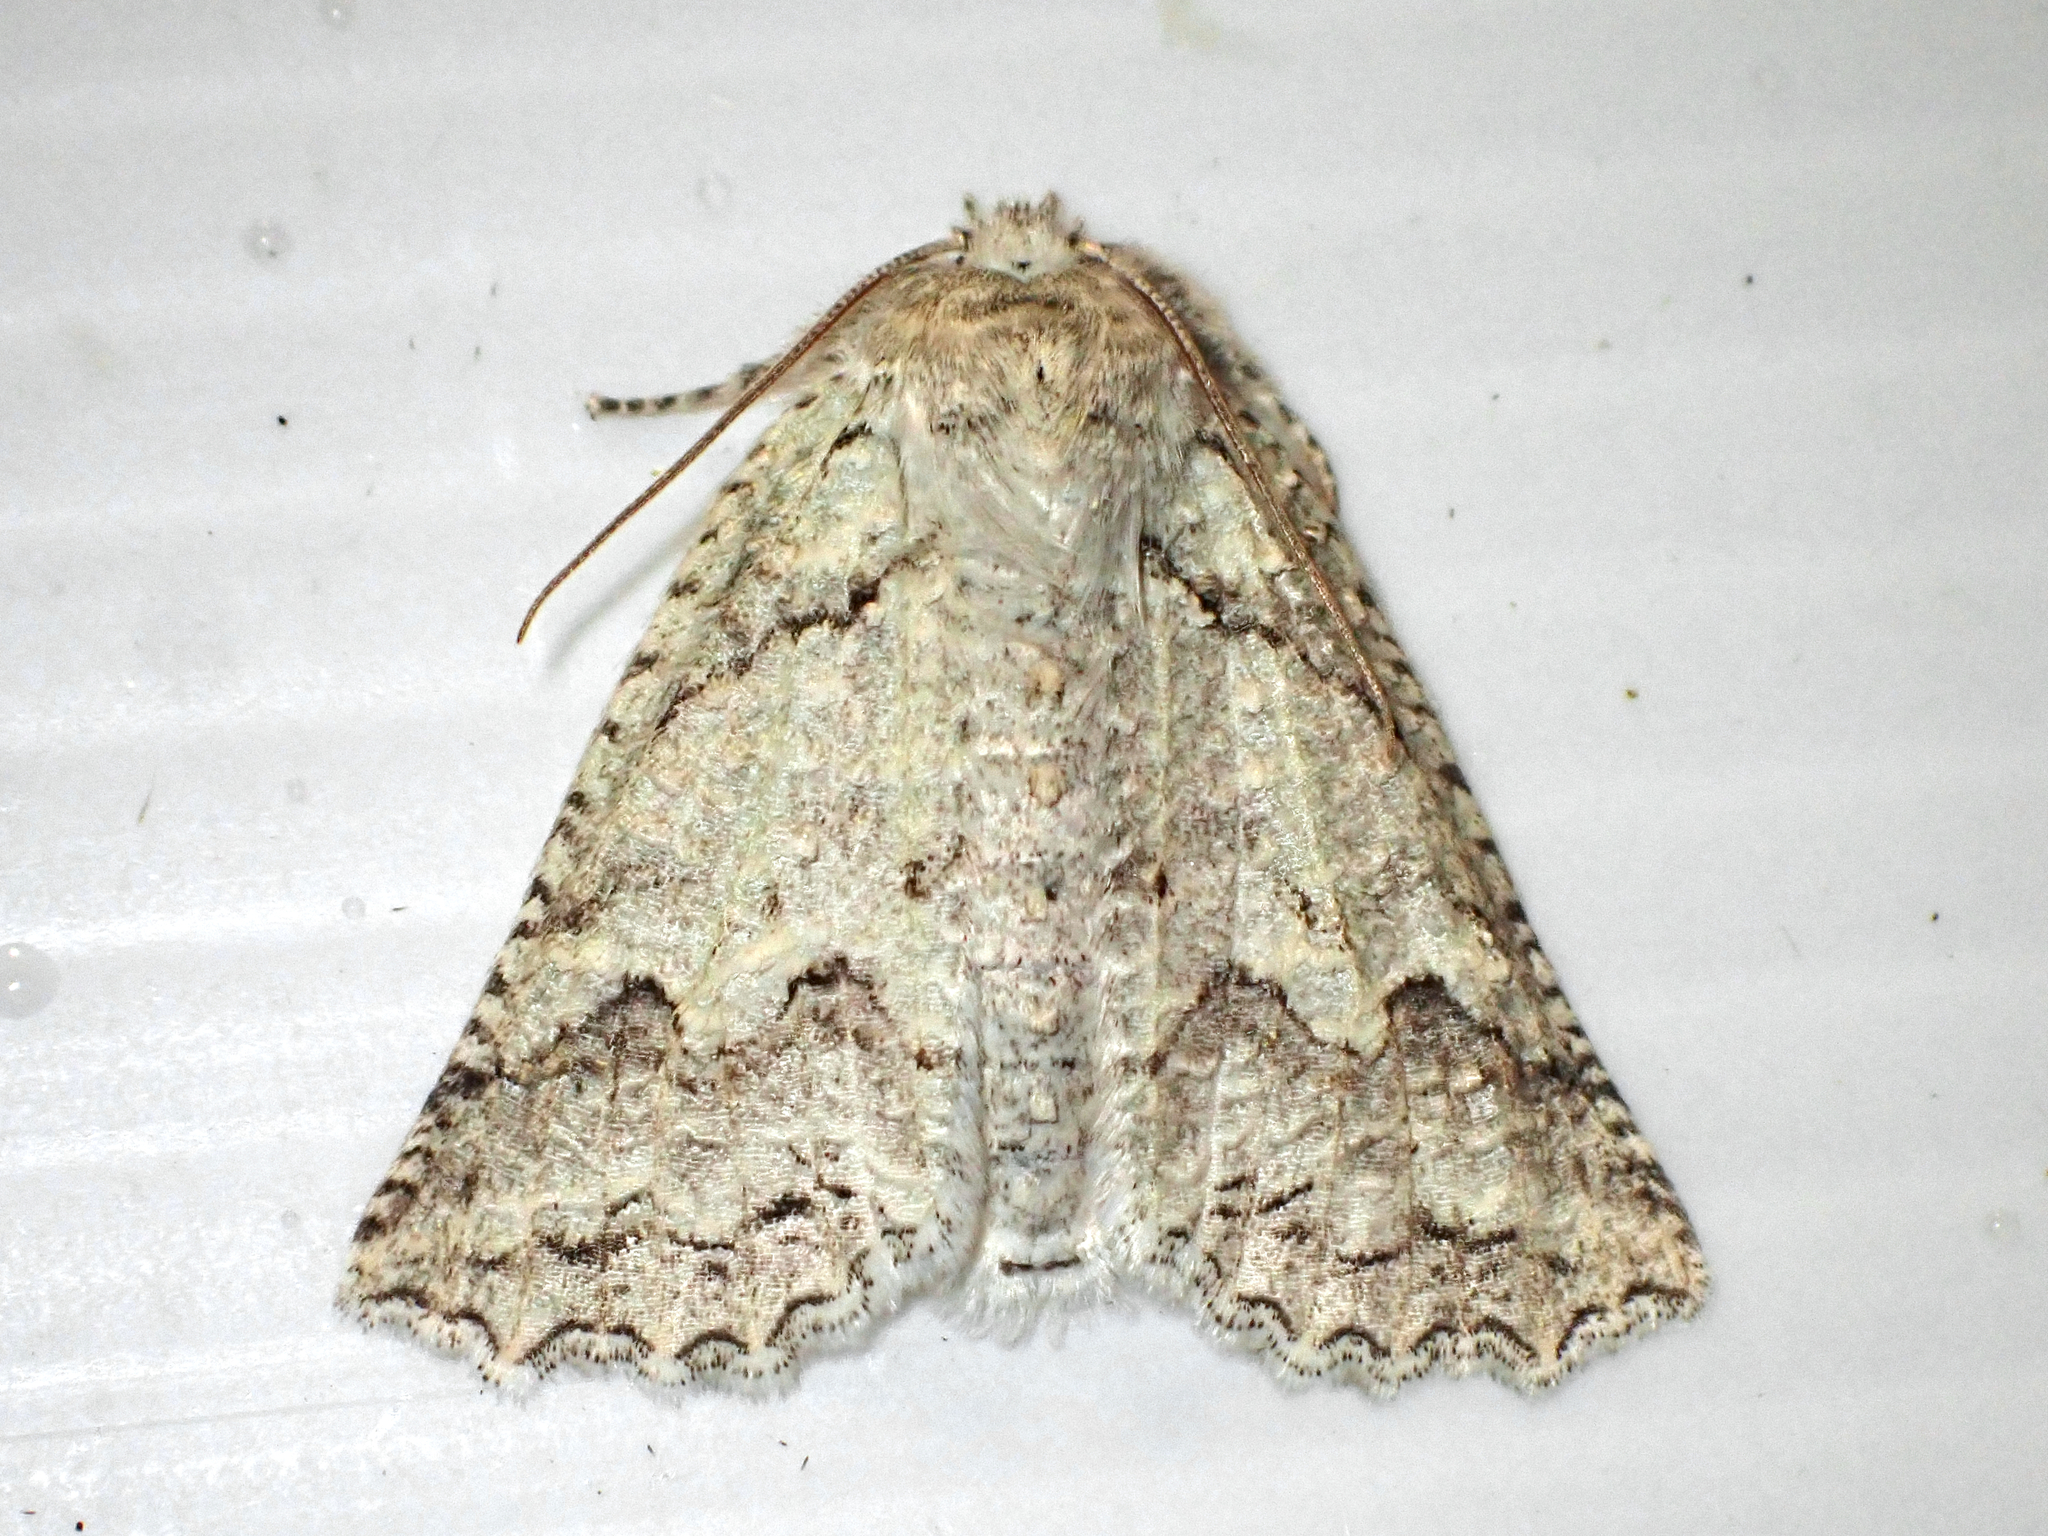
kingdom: Animalia
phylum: Arthropoda
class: Insecta
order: Lepidoptera
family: Geometridae
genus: Declana
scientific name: Declana niveata
